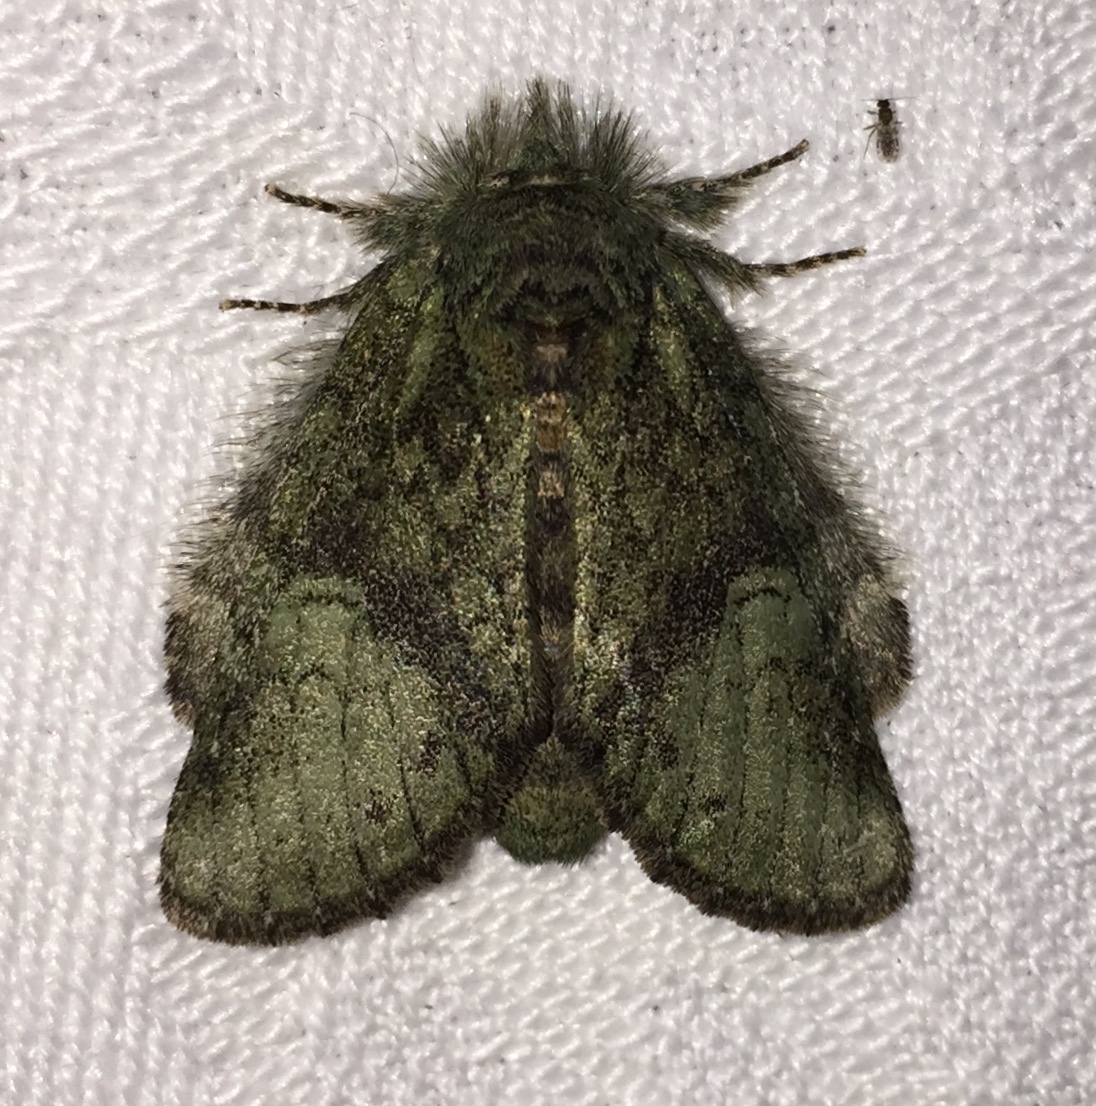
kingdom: Animalia
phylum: Arthropoda
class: Insecta
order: Lepidoptera
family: Notodontidae
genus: Disphragis
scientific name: Disphragis Cecrita guttivitta
